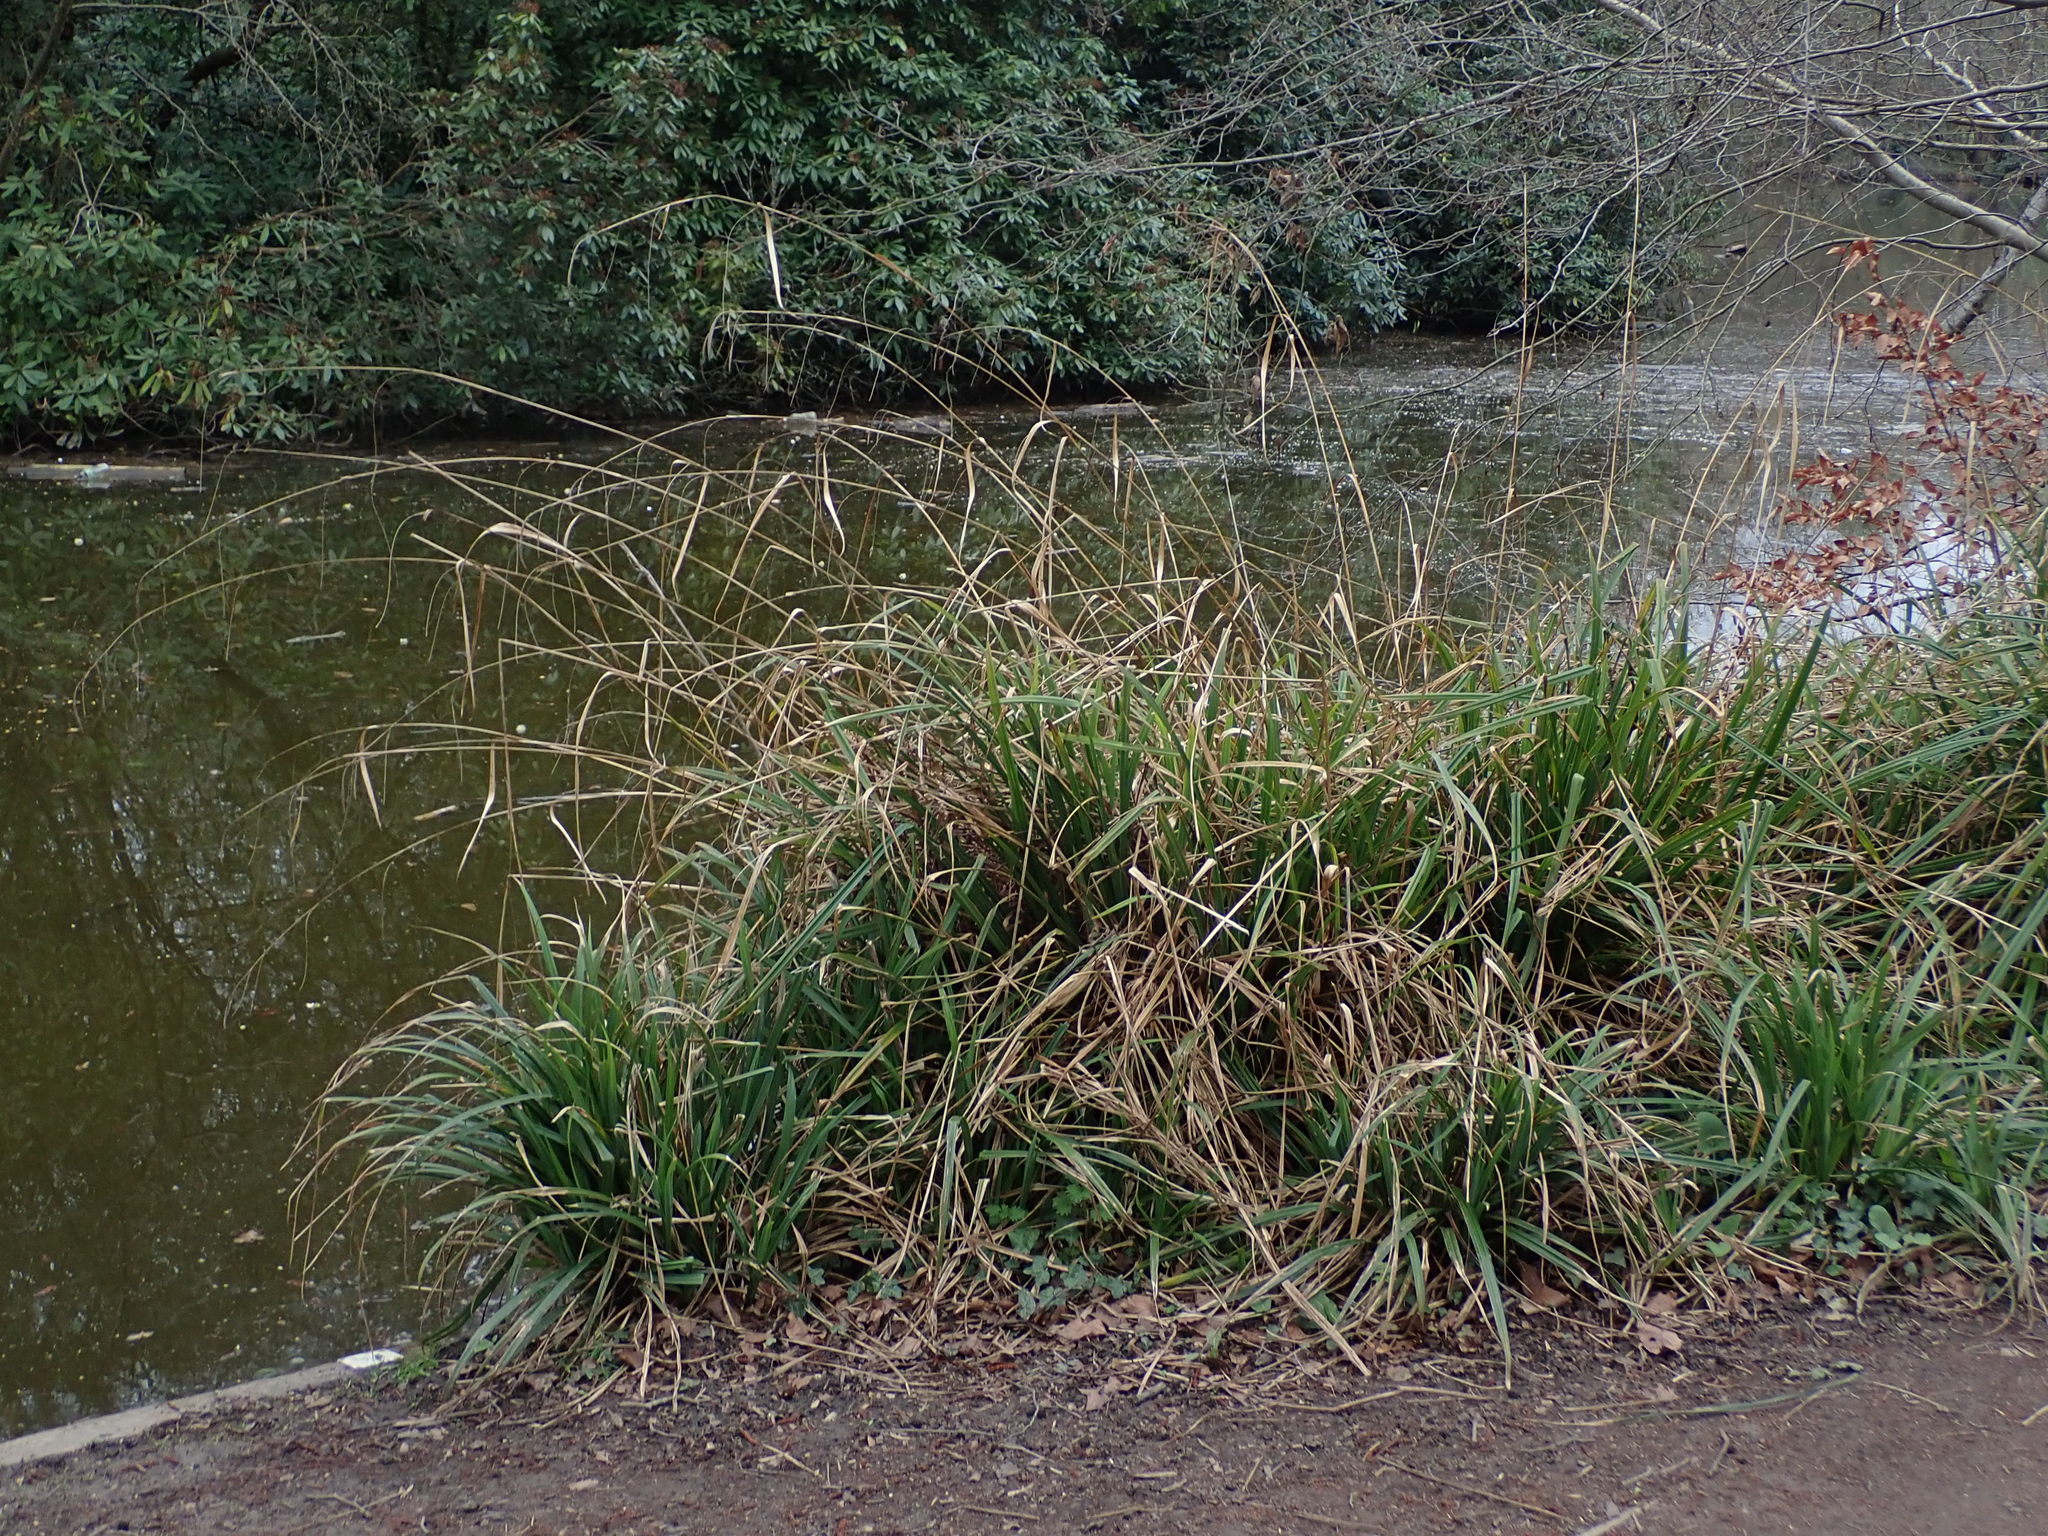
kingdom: Plantae
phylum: Tracheophyta
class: Liliopsida
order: Poales
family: Cyperaceae
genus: Carex
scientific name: Carex pendula
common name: Pendulous sedge
